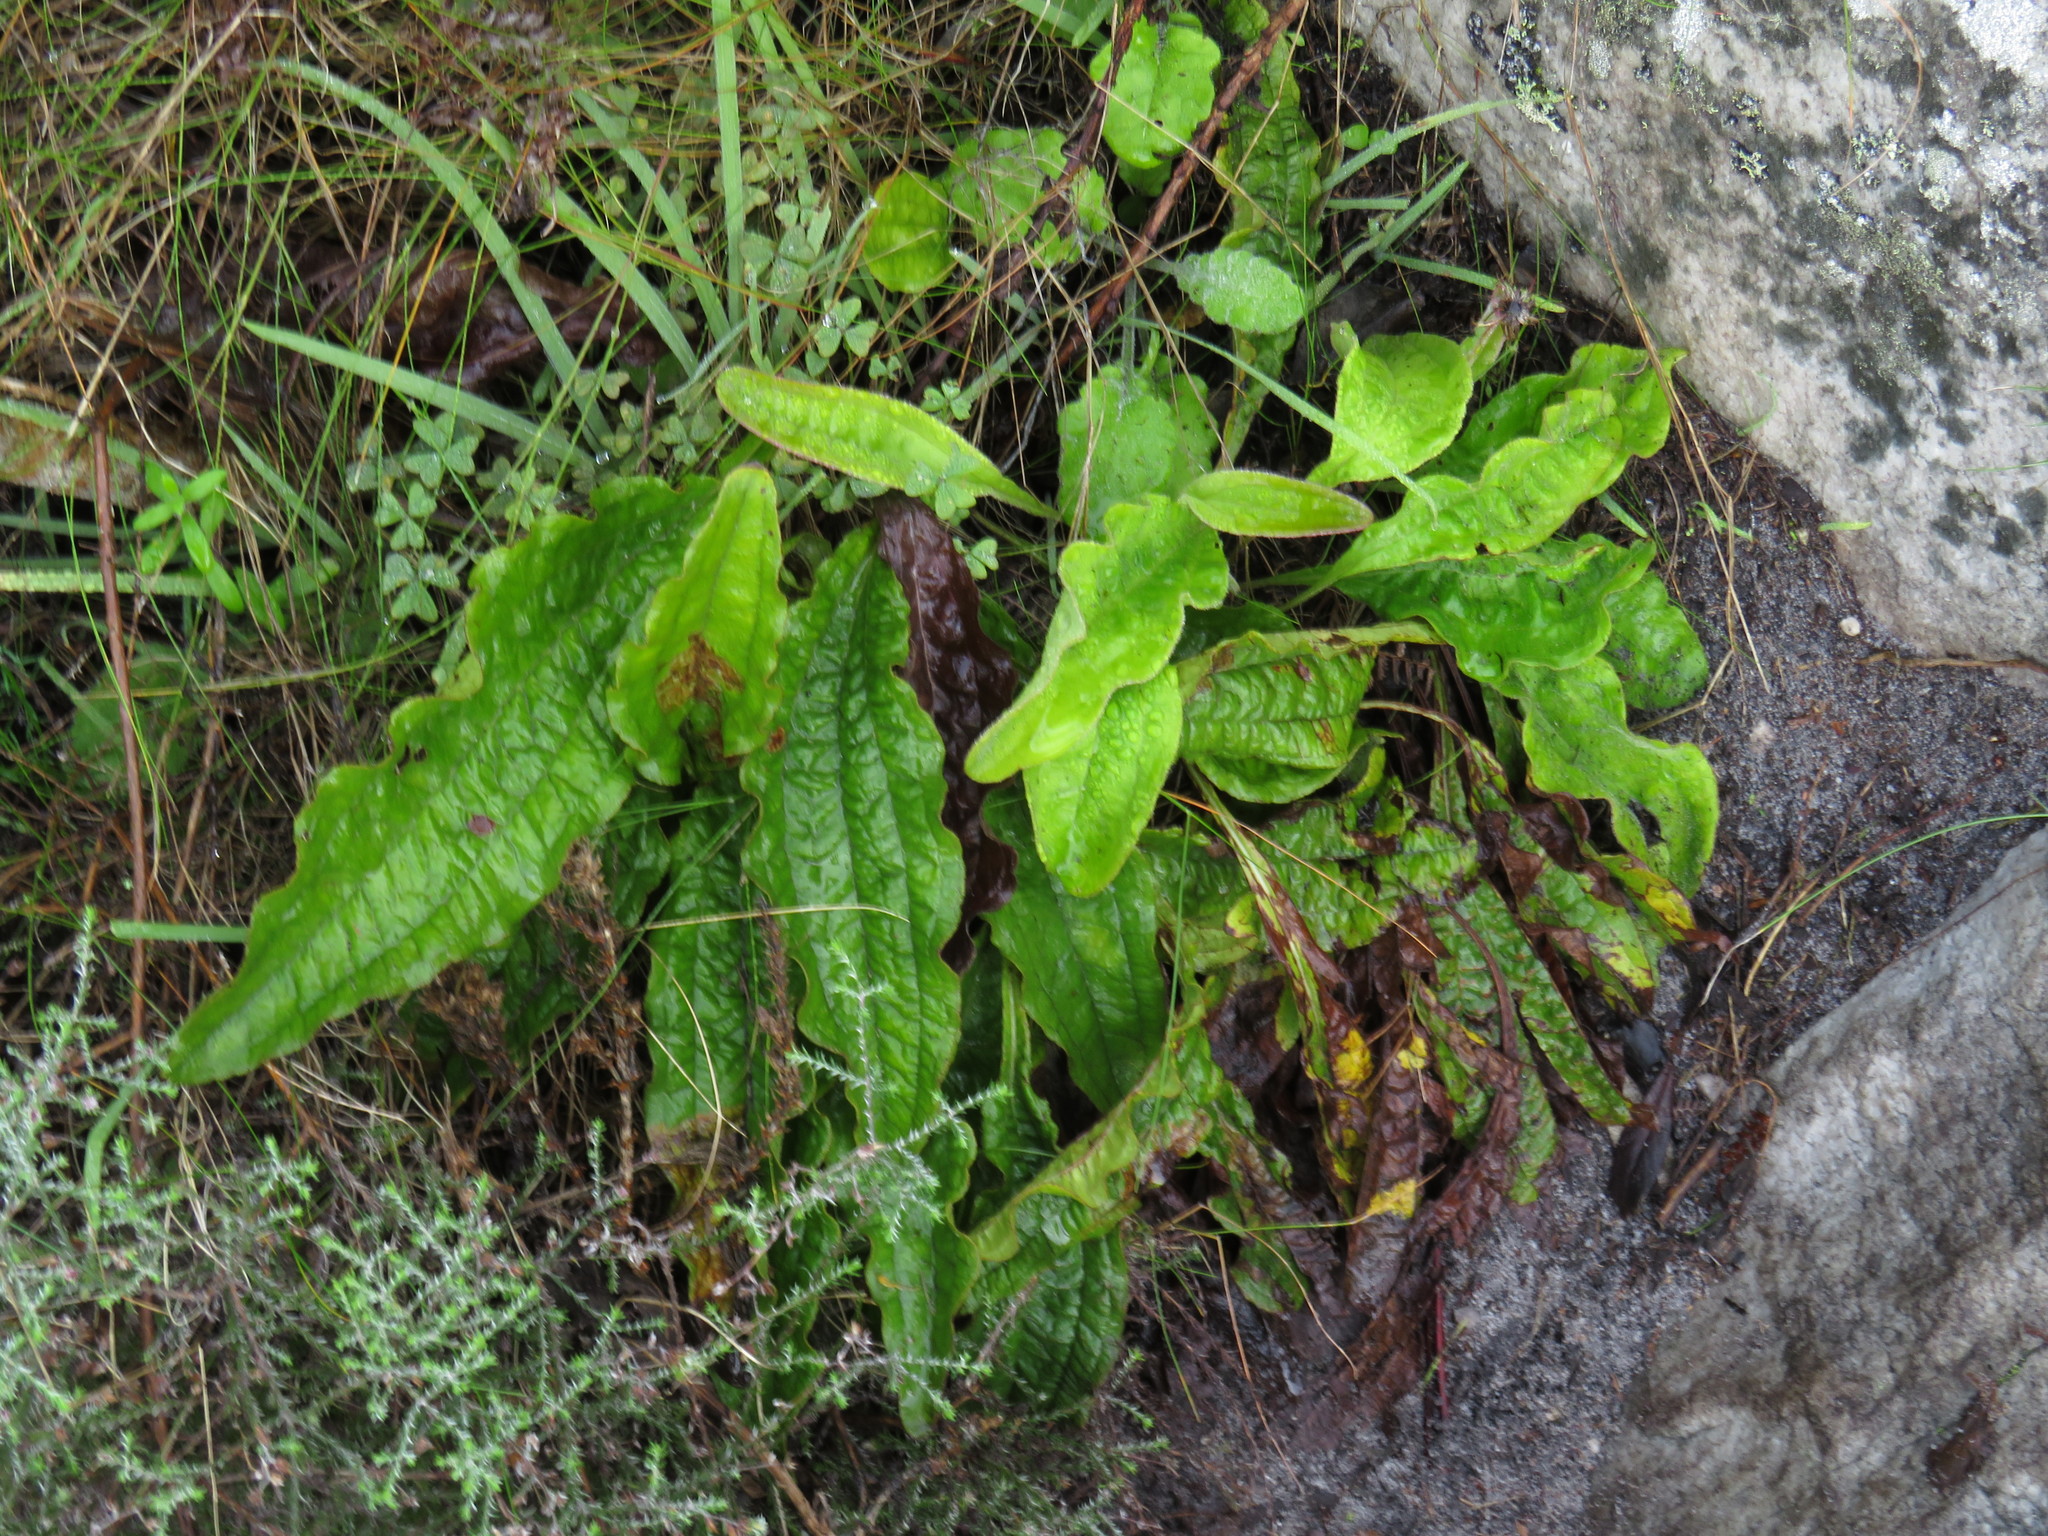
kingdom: Plantae
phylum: Tracheophyta
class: Magnoliopsida
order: Asterales
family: Asteraceae
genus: Helichrysum
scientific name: Helichrysum nudifolium
